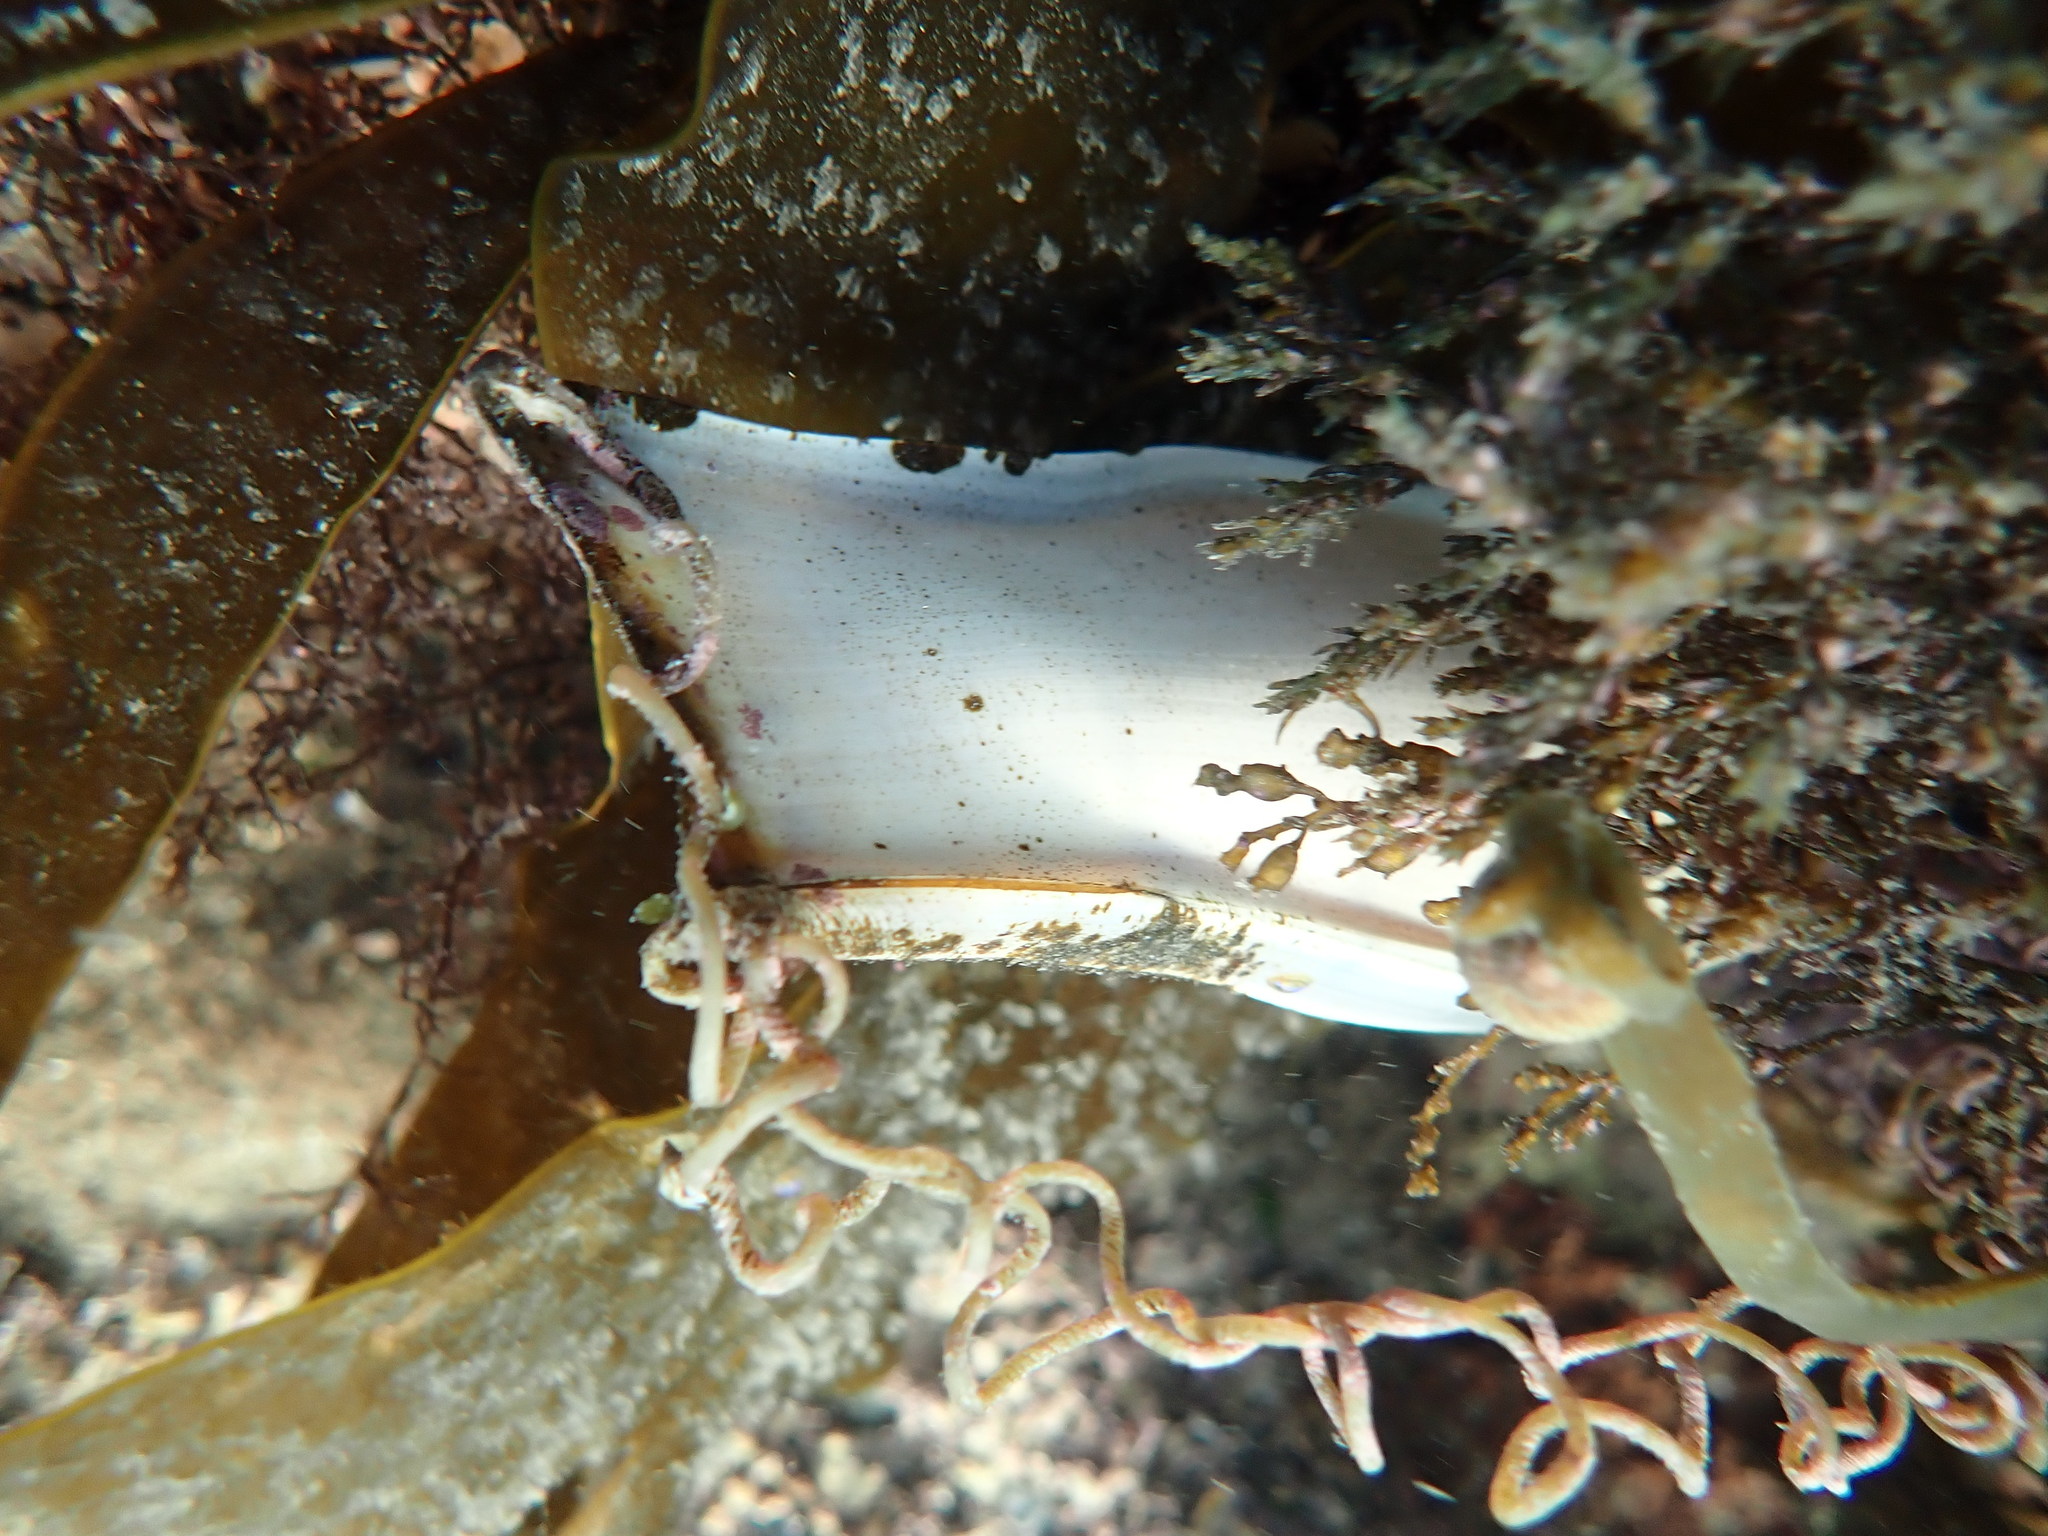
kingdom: Animalia
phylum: Chordata
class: Elasmobranchii
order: Carcharhiniformes
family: Scyliorhinidae
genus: Scyliorhinus
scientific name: Scyliorhinus stellaris
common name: Nursehound
